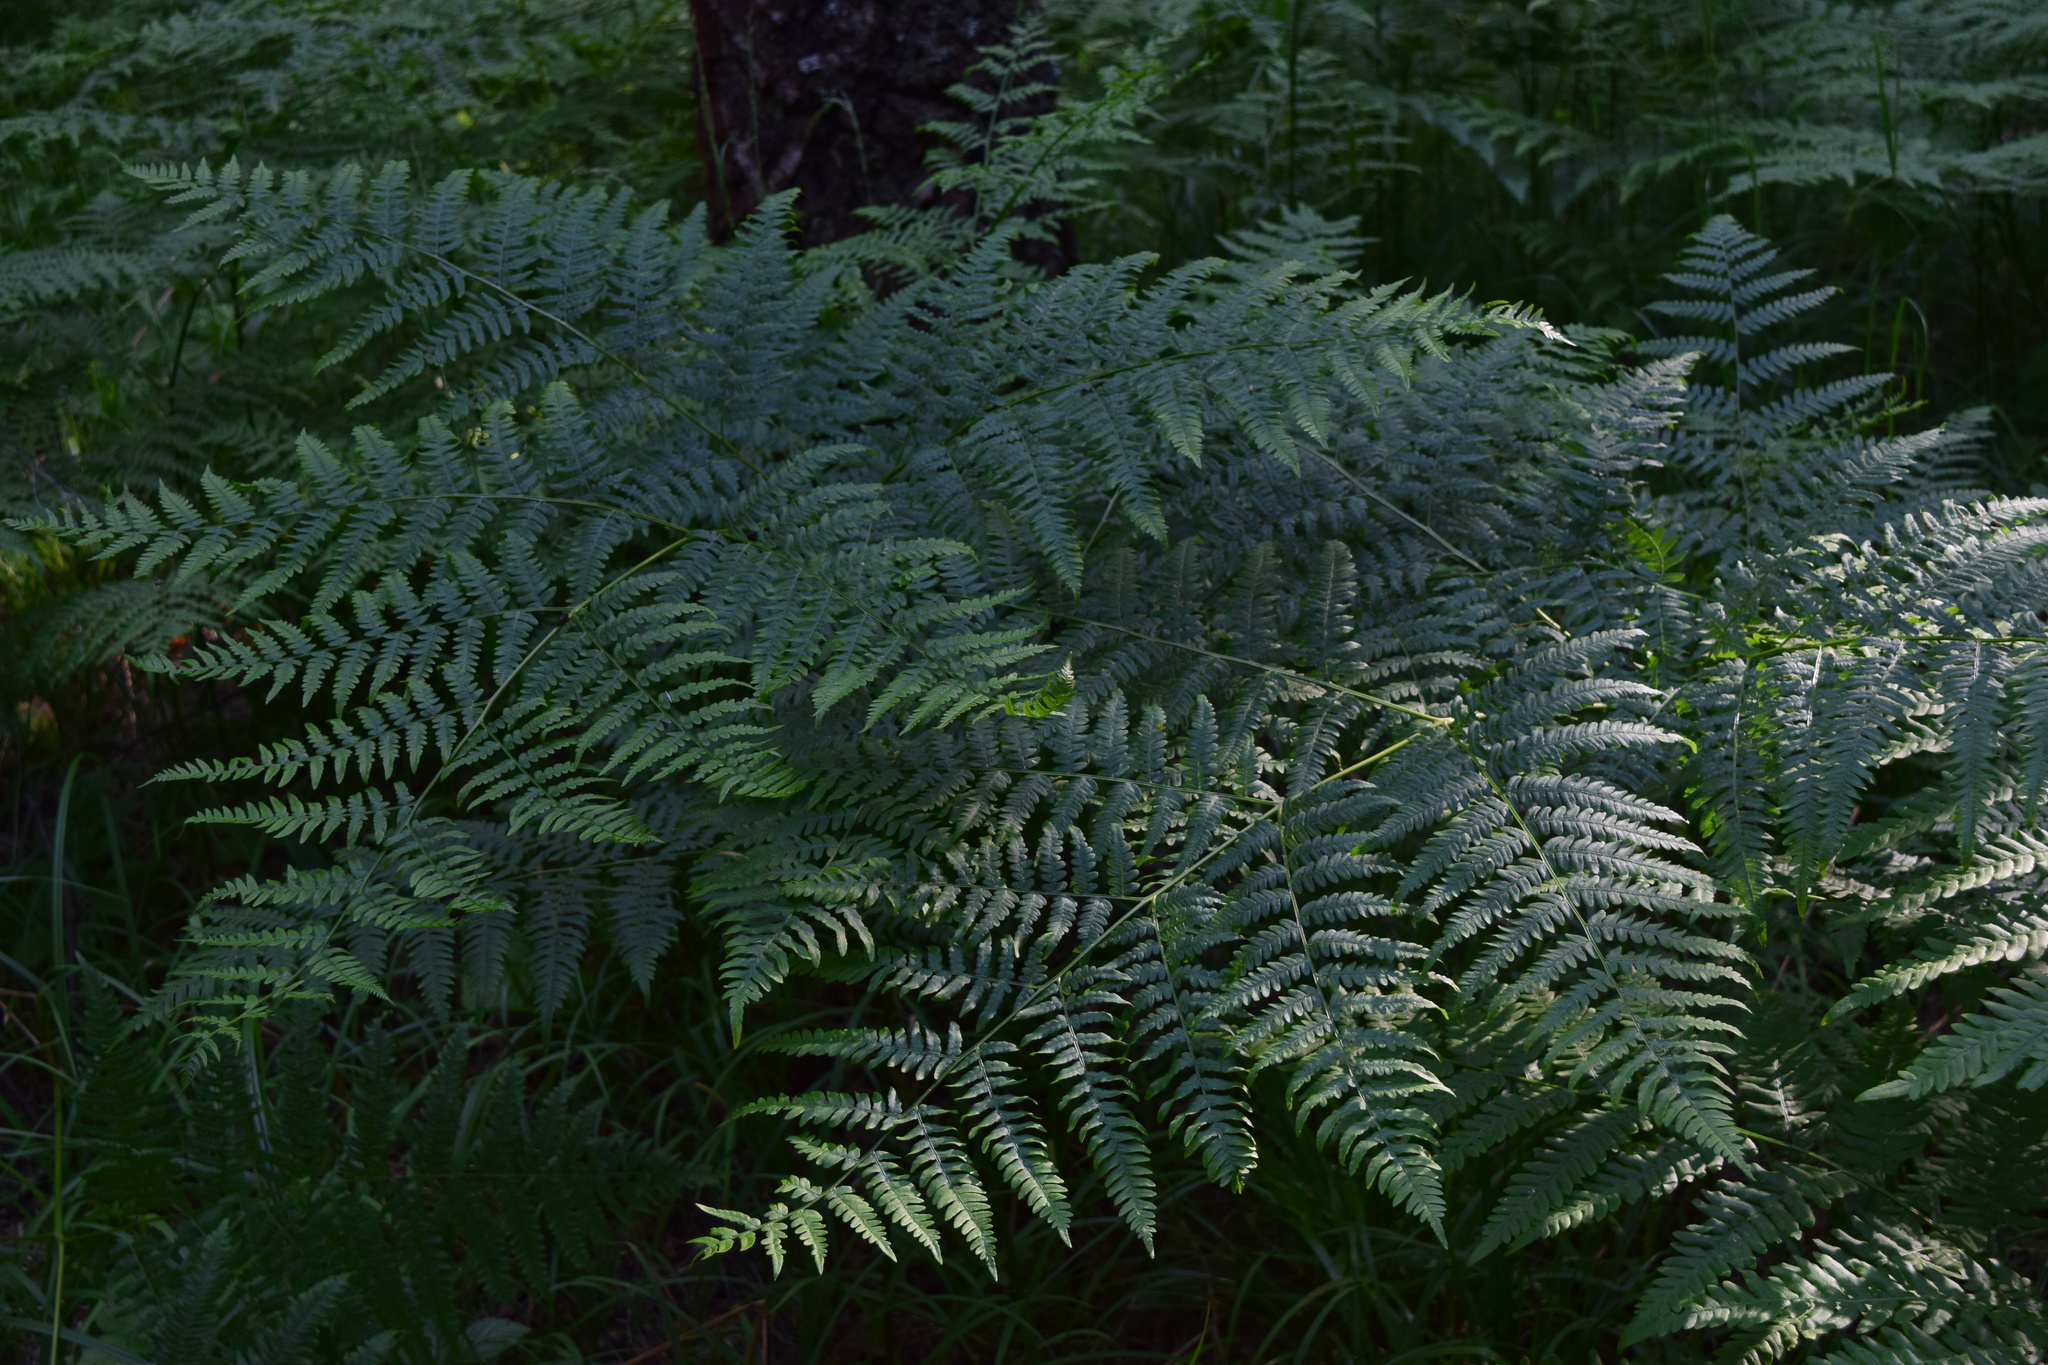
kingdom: Plantae
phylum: Tracheophyta
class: Polypodiopsida
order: Polypodiales
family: Dennstaedtiaceae
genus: Pteridium
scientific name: Pteridium aquilinum
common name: Bracken
